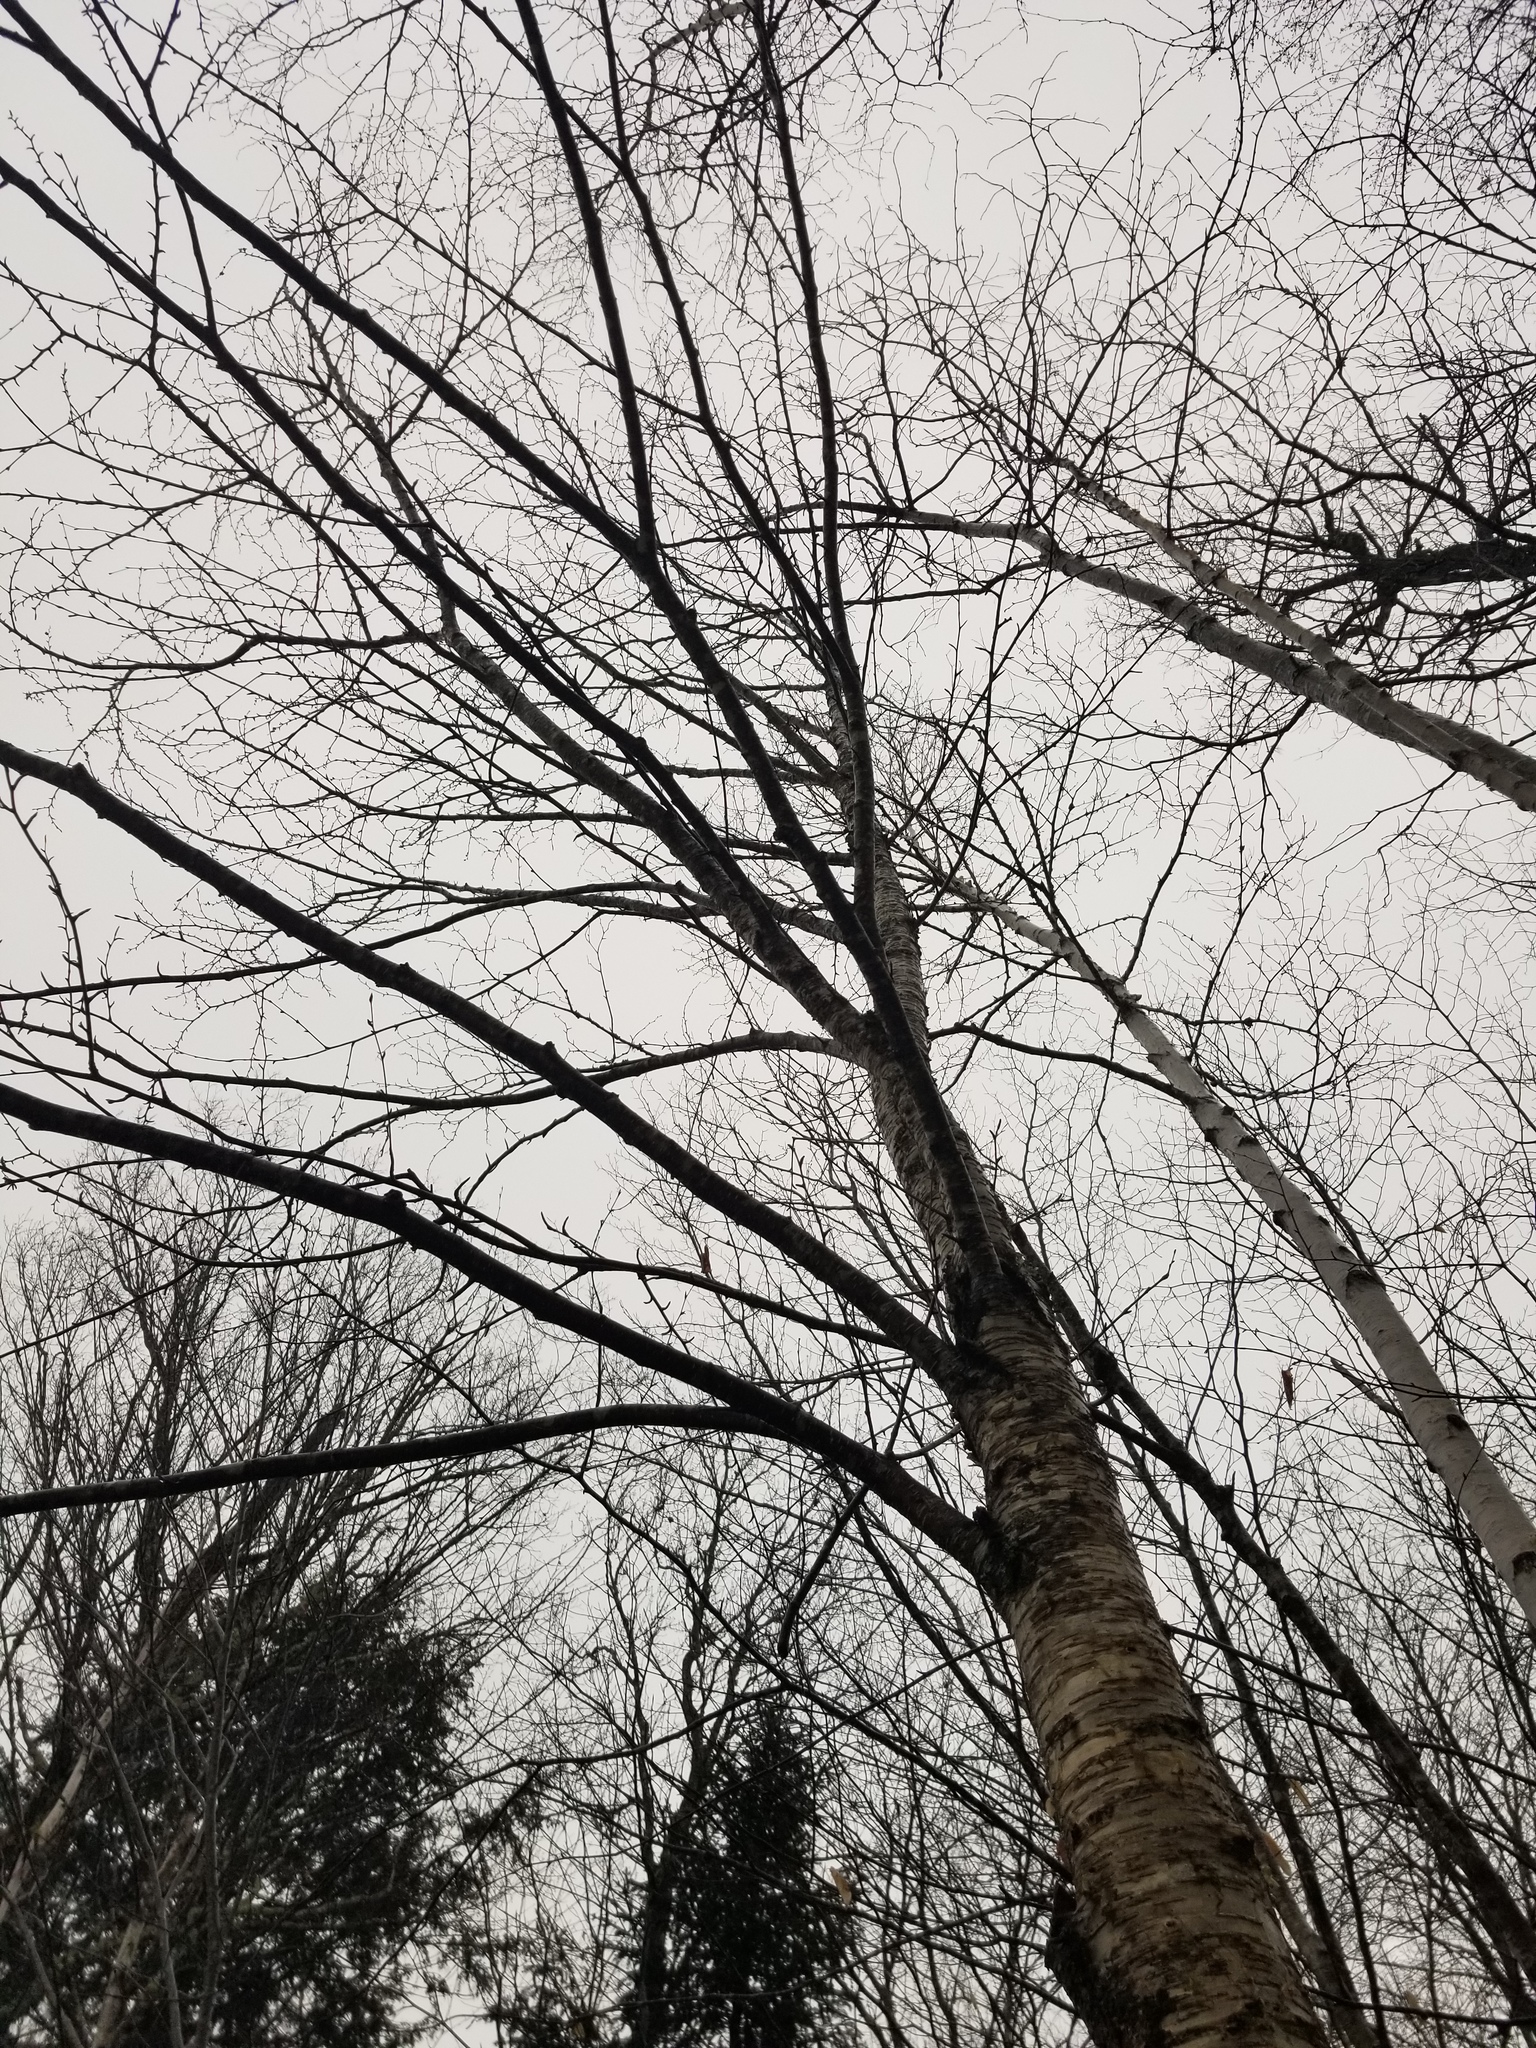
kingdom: Plantae
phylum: Tracheophyta
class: Magnoliopsida
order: Fagales
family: Betulaceae
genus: Betula
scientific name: Betula alleghaniensis
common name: Yellow birch
